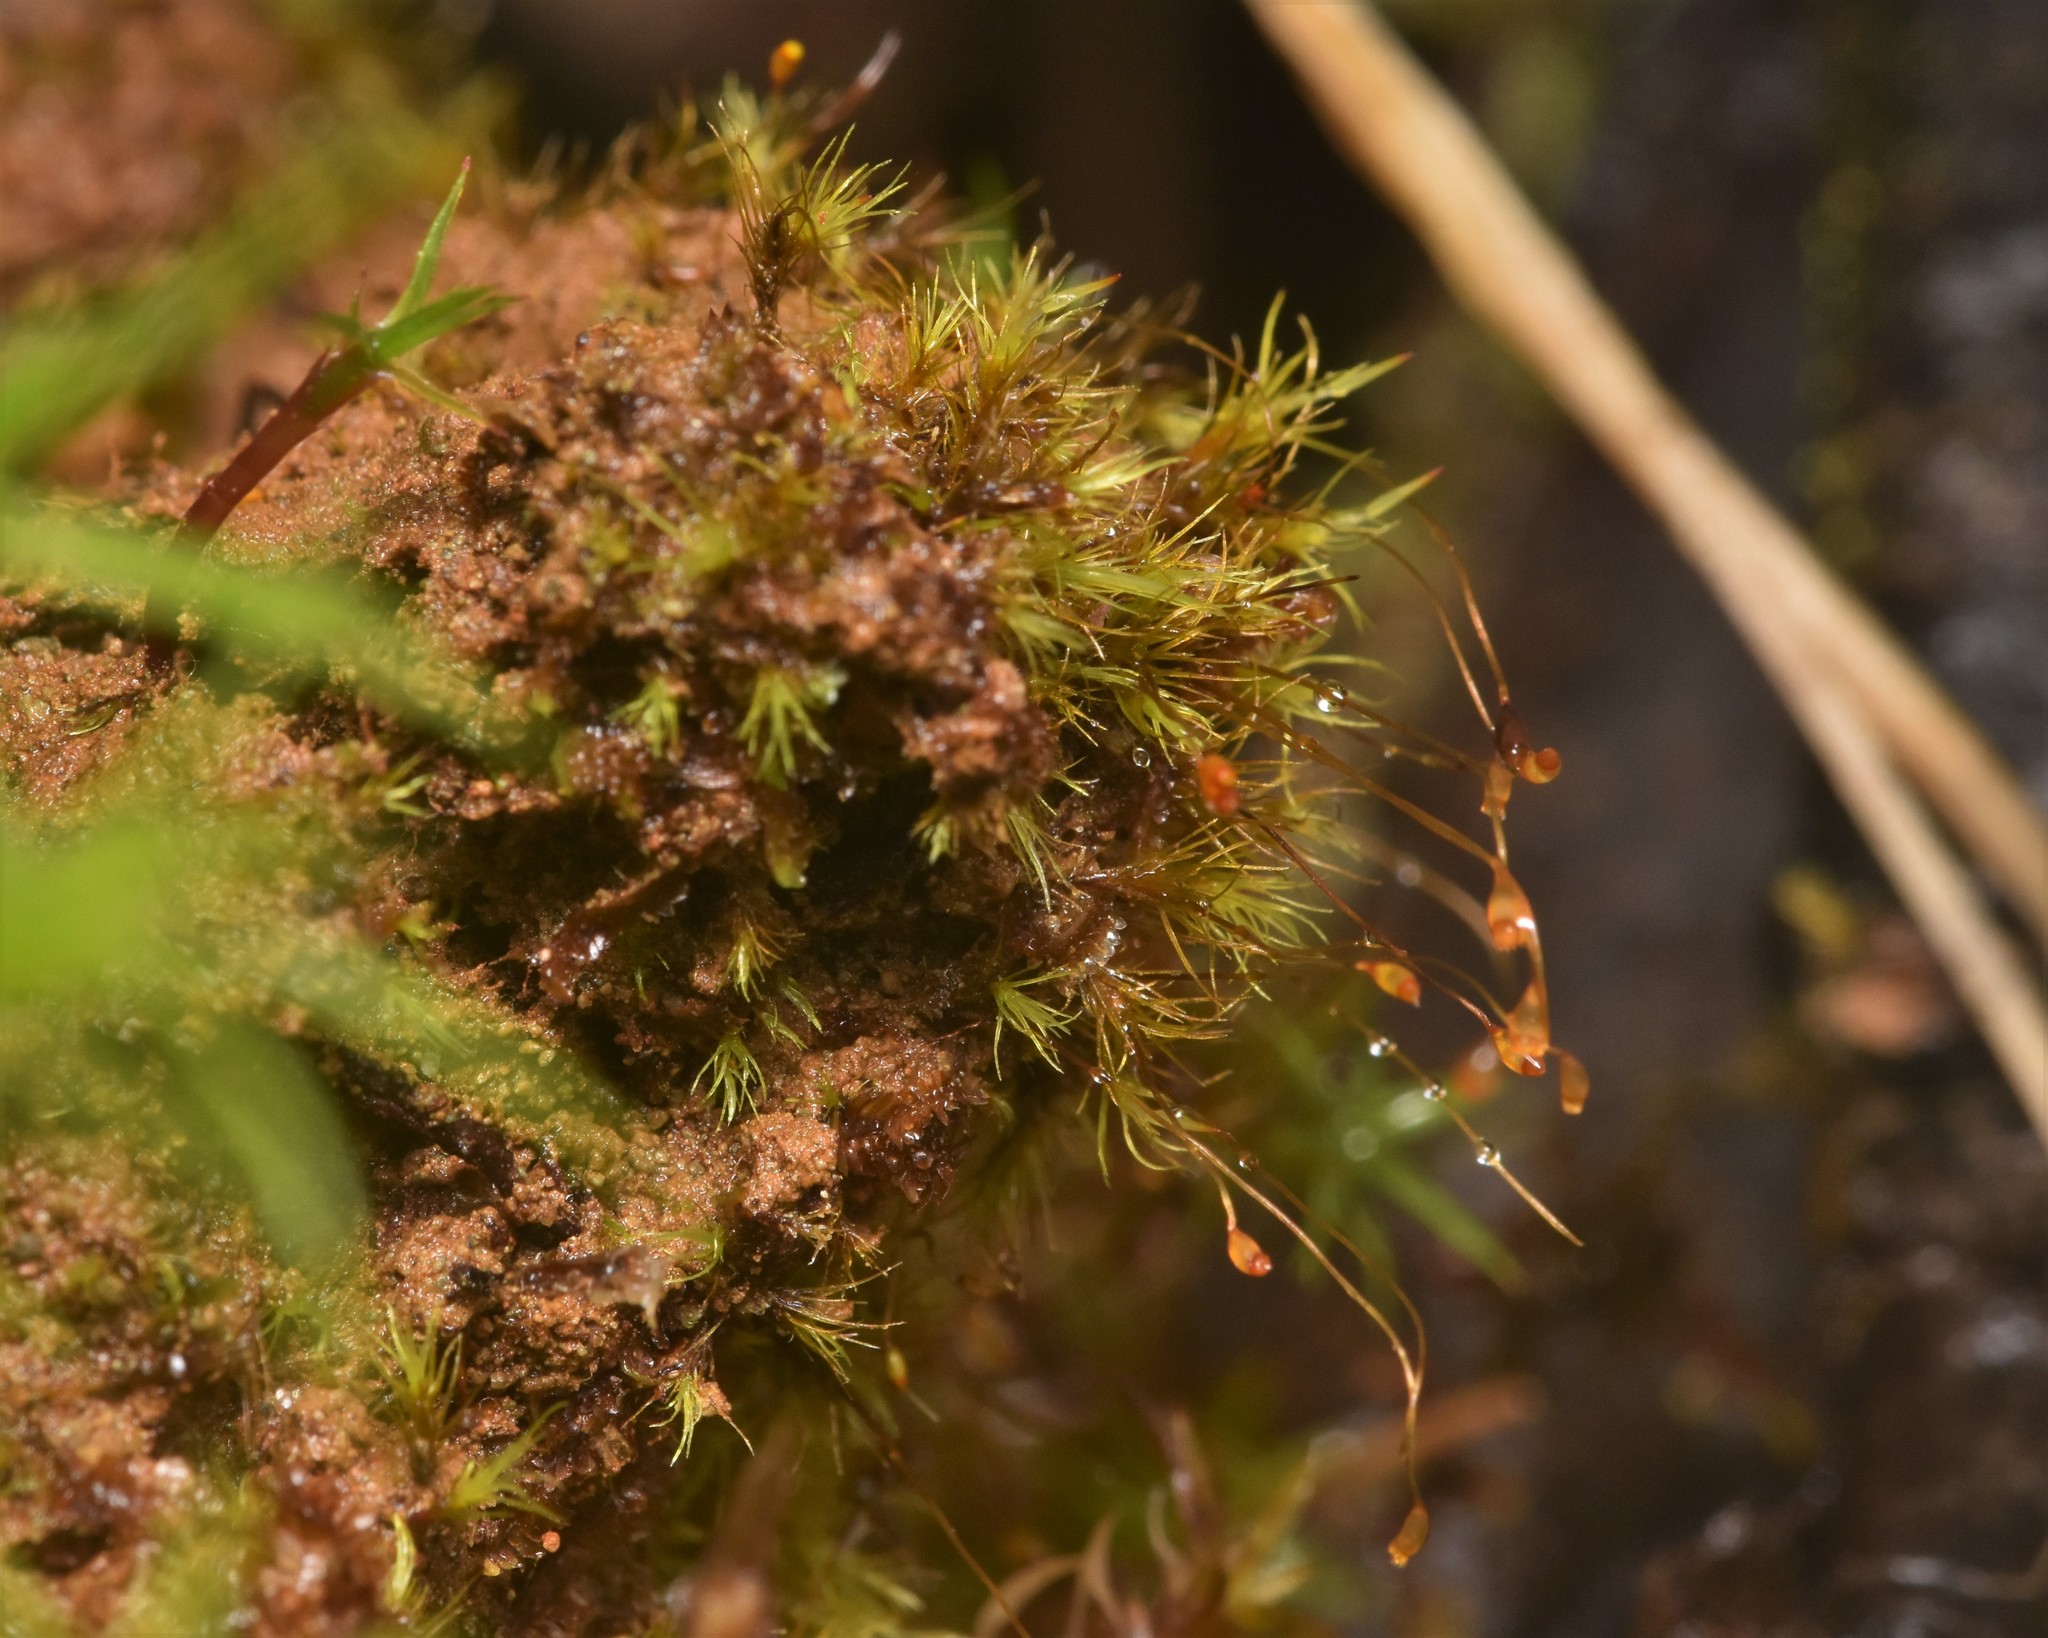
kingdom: Plantae
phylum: Bryophyta
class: Bryopsida
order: Dicranales
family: Dicranellaceae
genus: Dicranella
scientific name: Dicranella heteromalla
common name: Silky forklet moss
